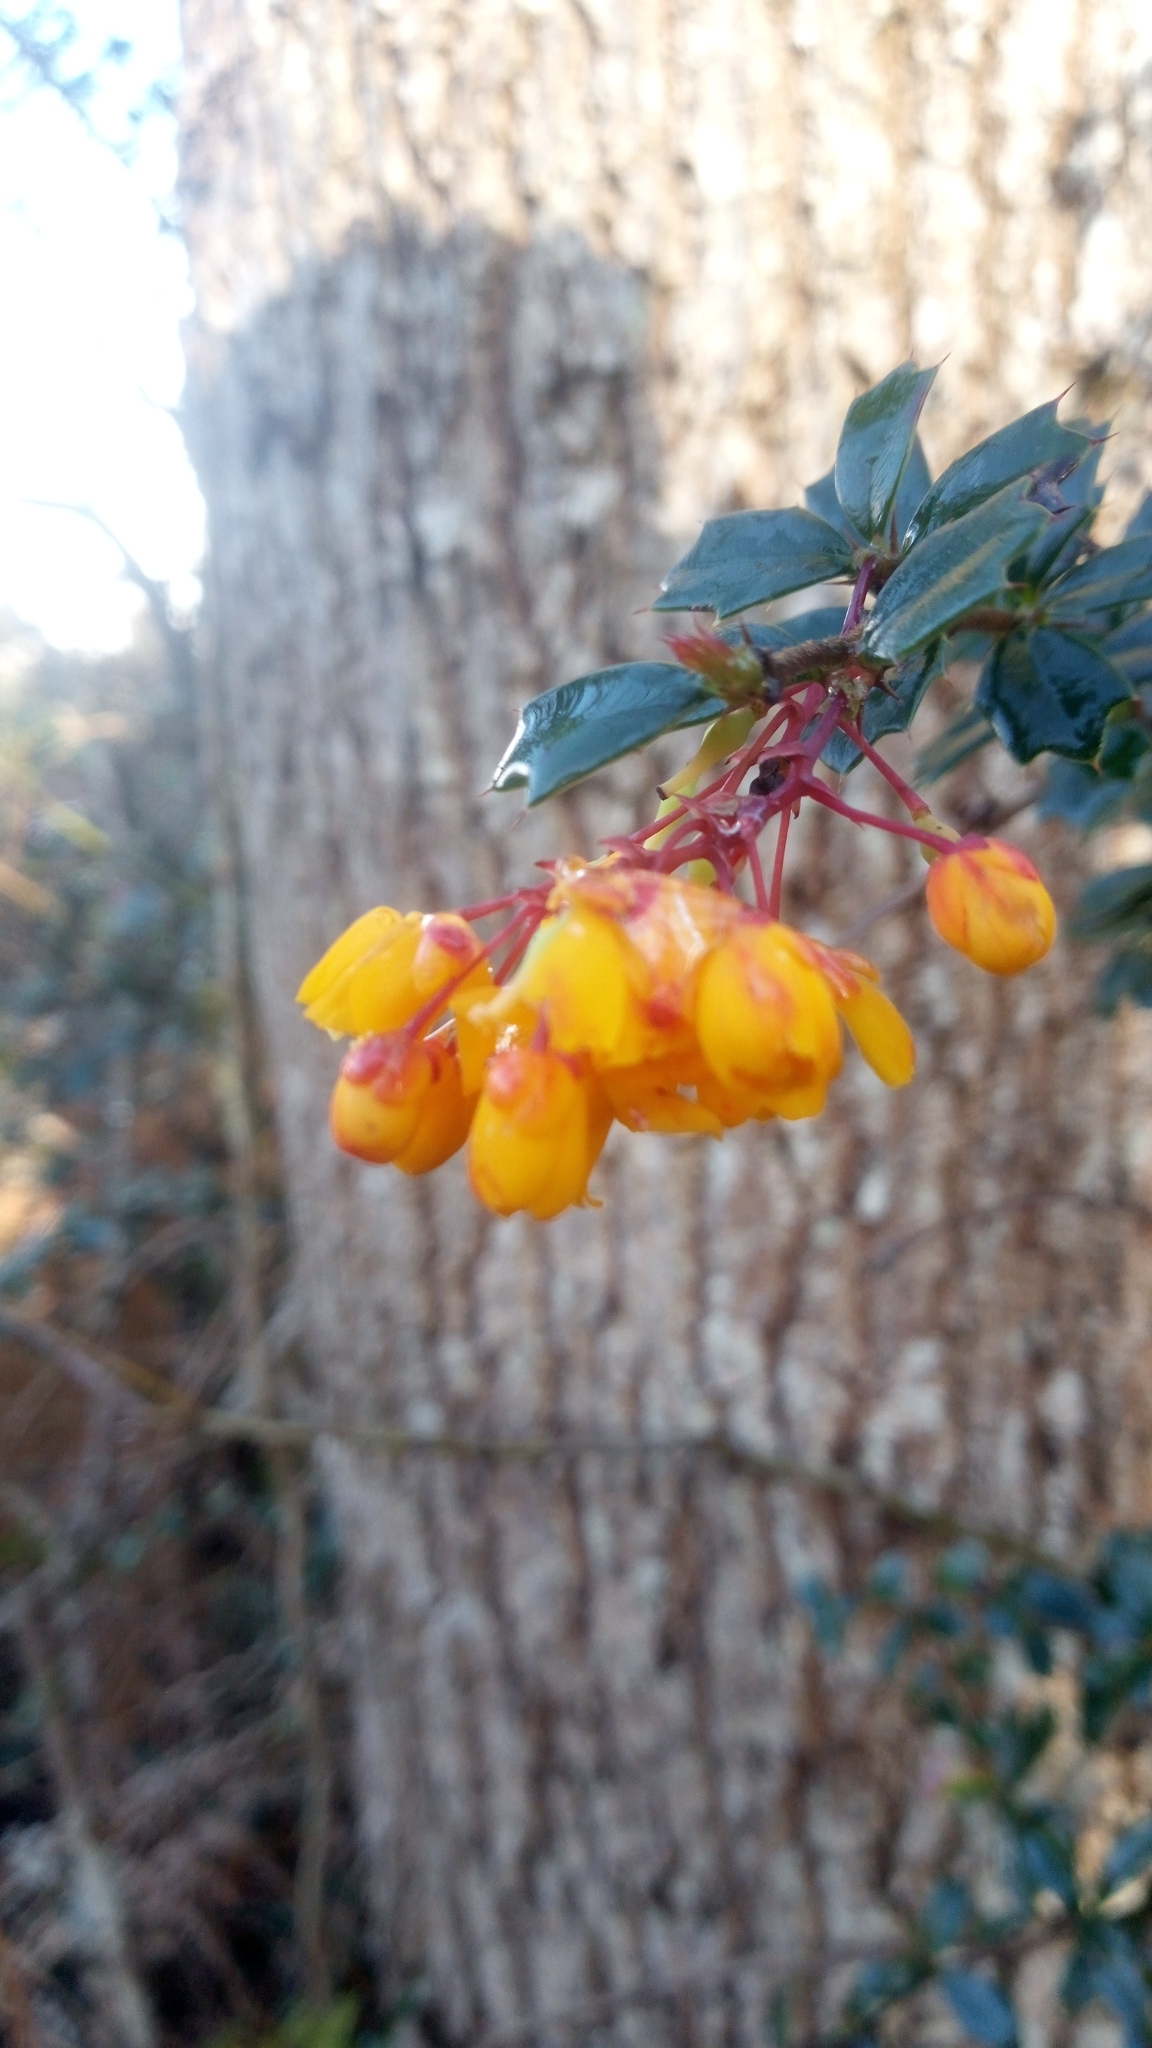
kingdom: Plantae
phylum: Tracheophyta
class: Magnoliopsida
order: Ranunculales
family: Berberidaceae
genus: Berberis
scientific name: Berberis darwinii
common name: Darwin's barberry
